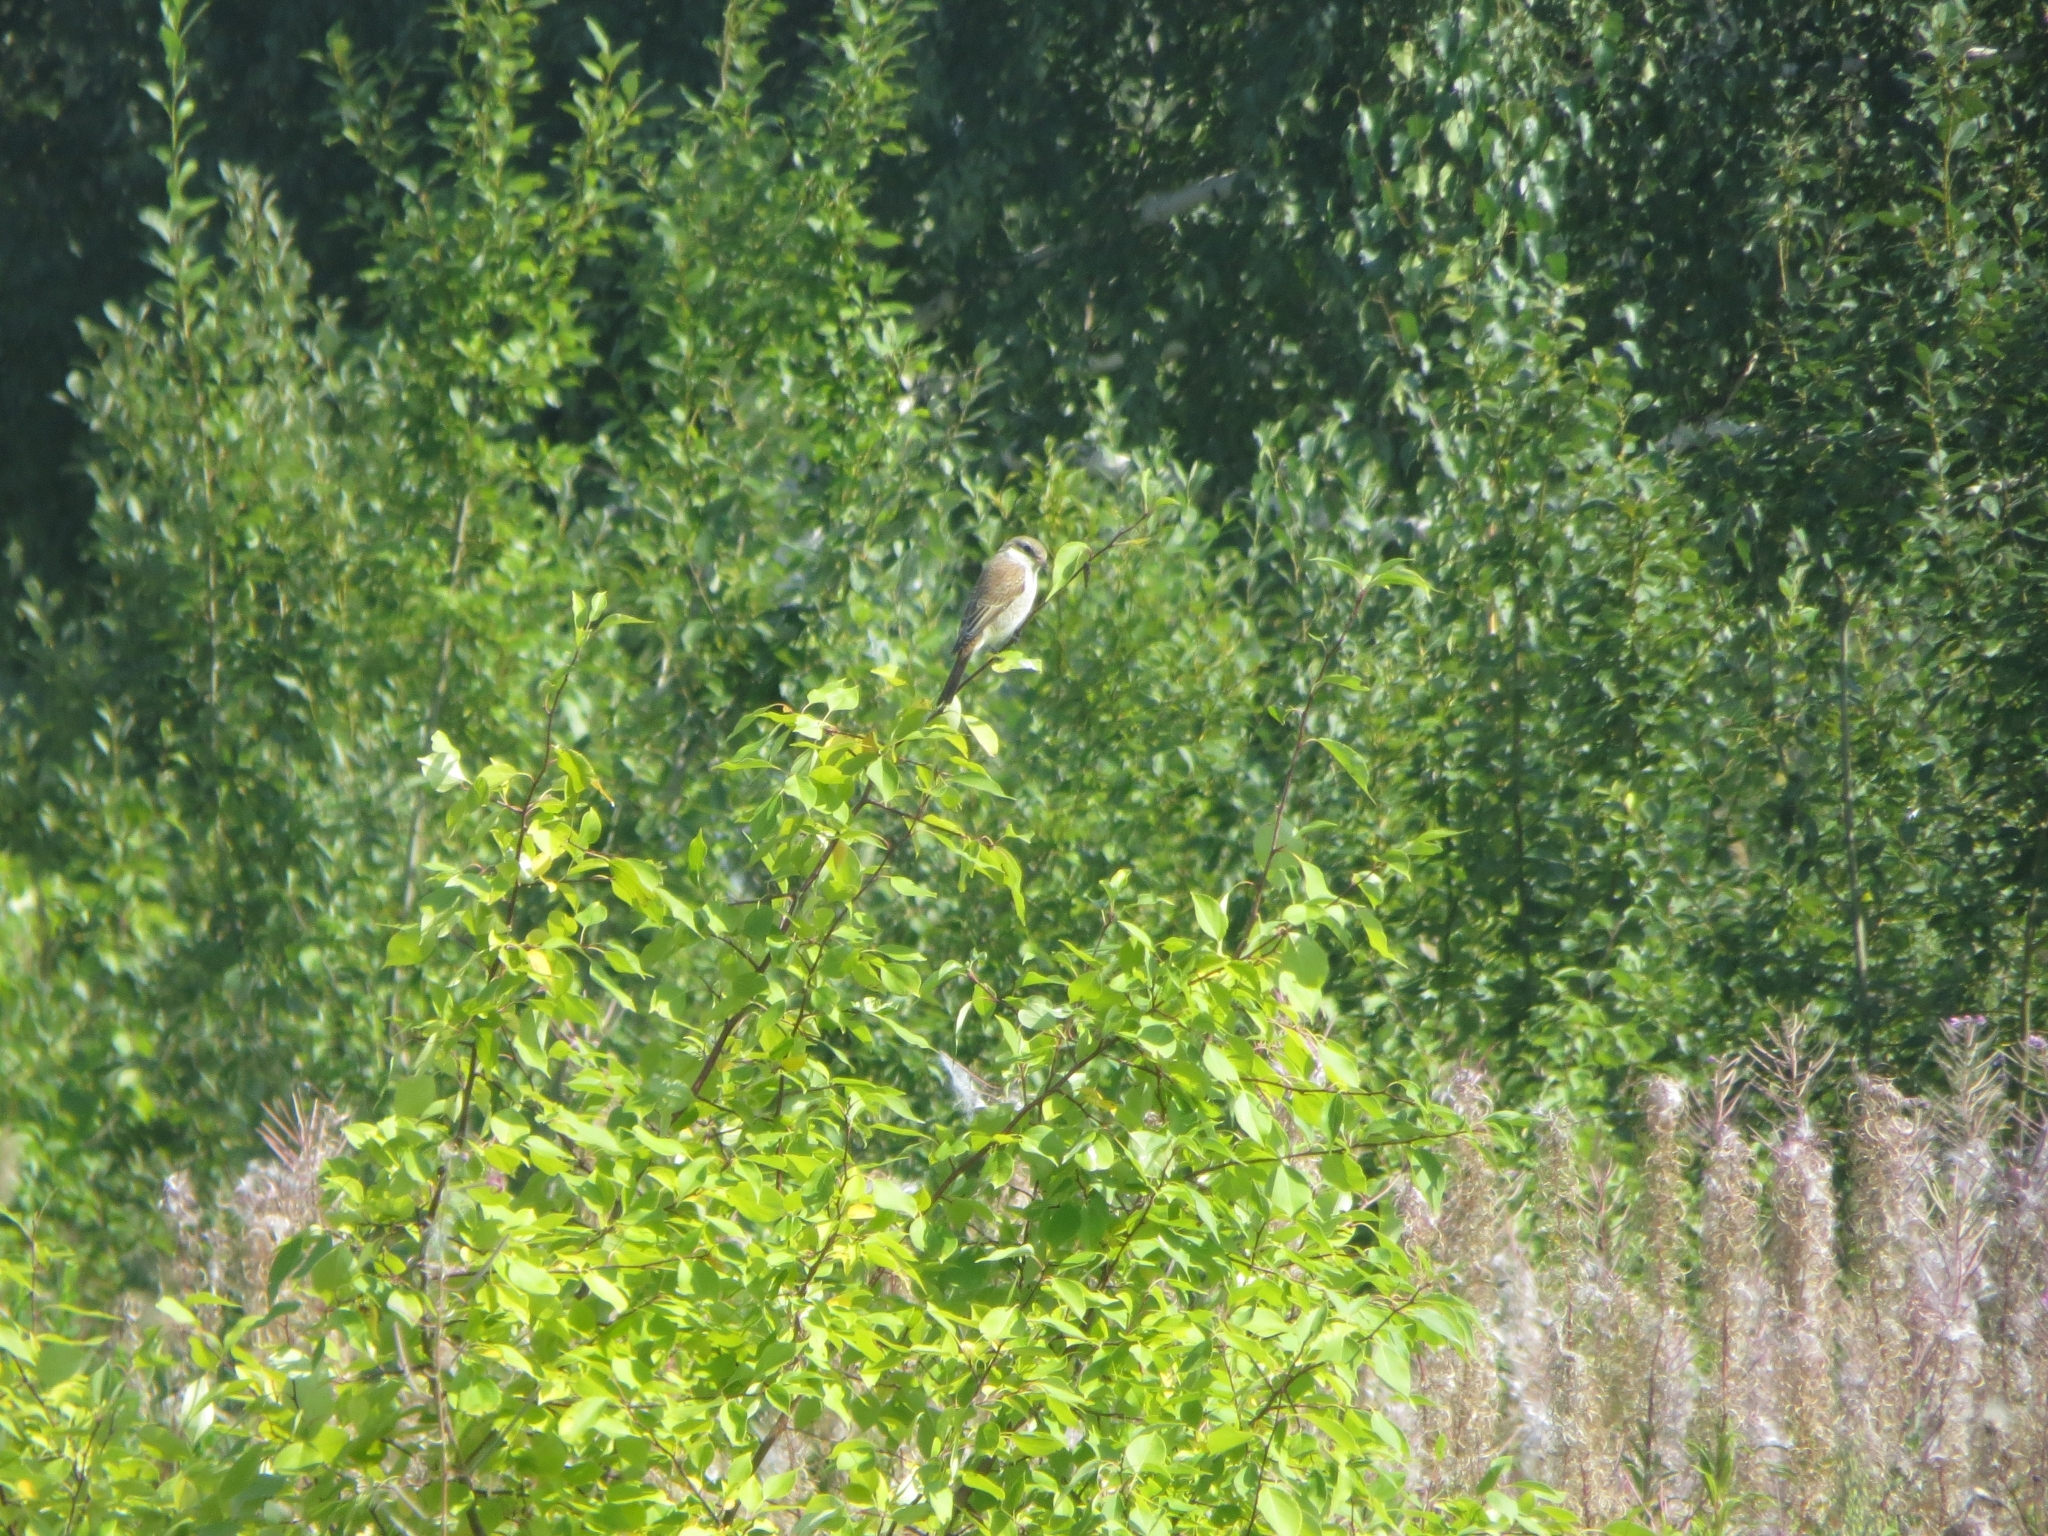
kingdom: Animalia
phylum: Chordata
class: Aves
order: Passeriformes
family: Laniidae
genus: Lanius
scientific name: Lanius collurio
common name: Red-backed shrike
